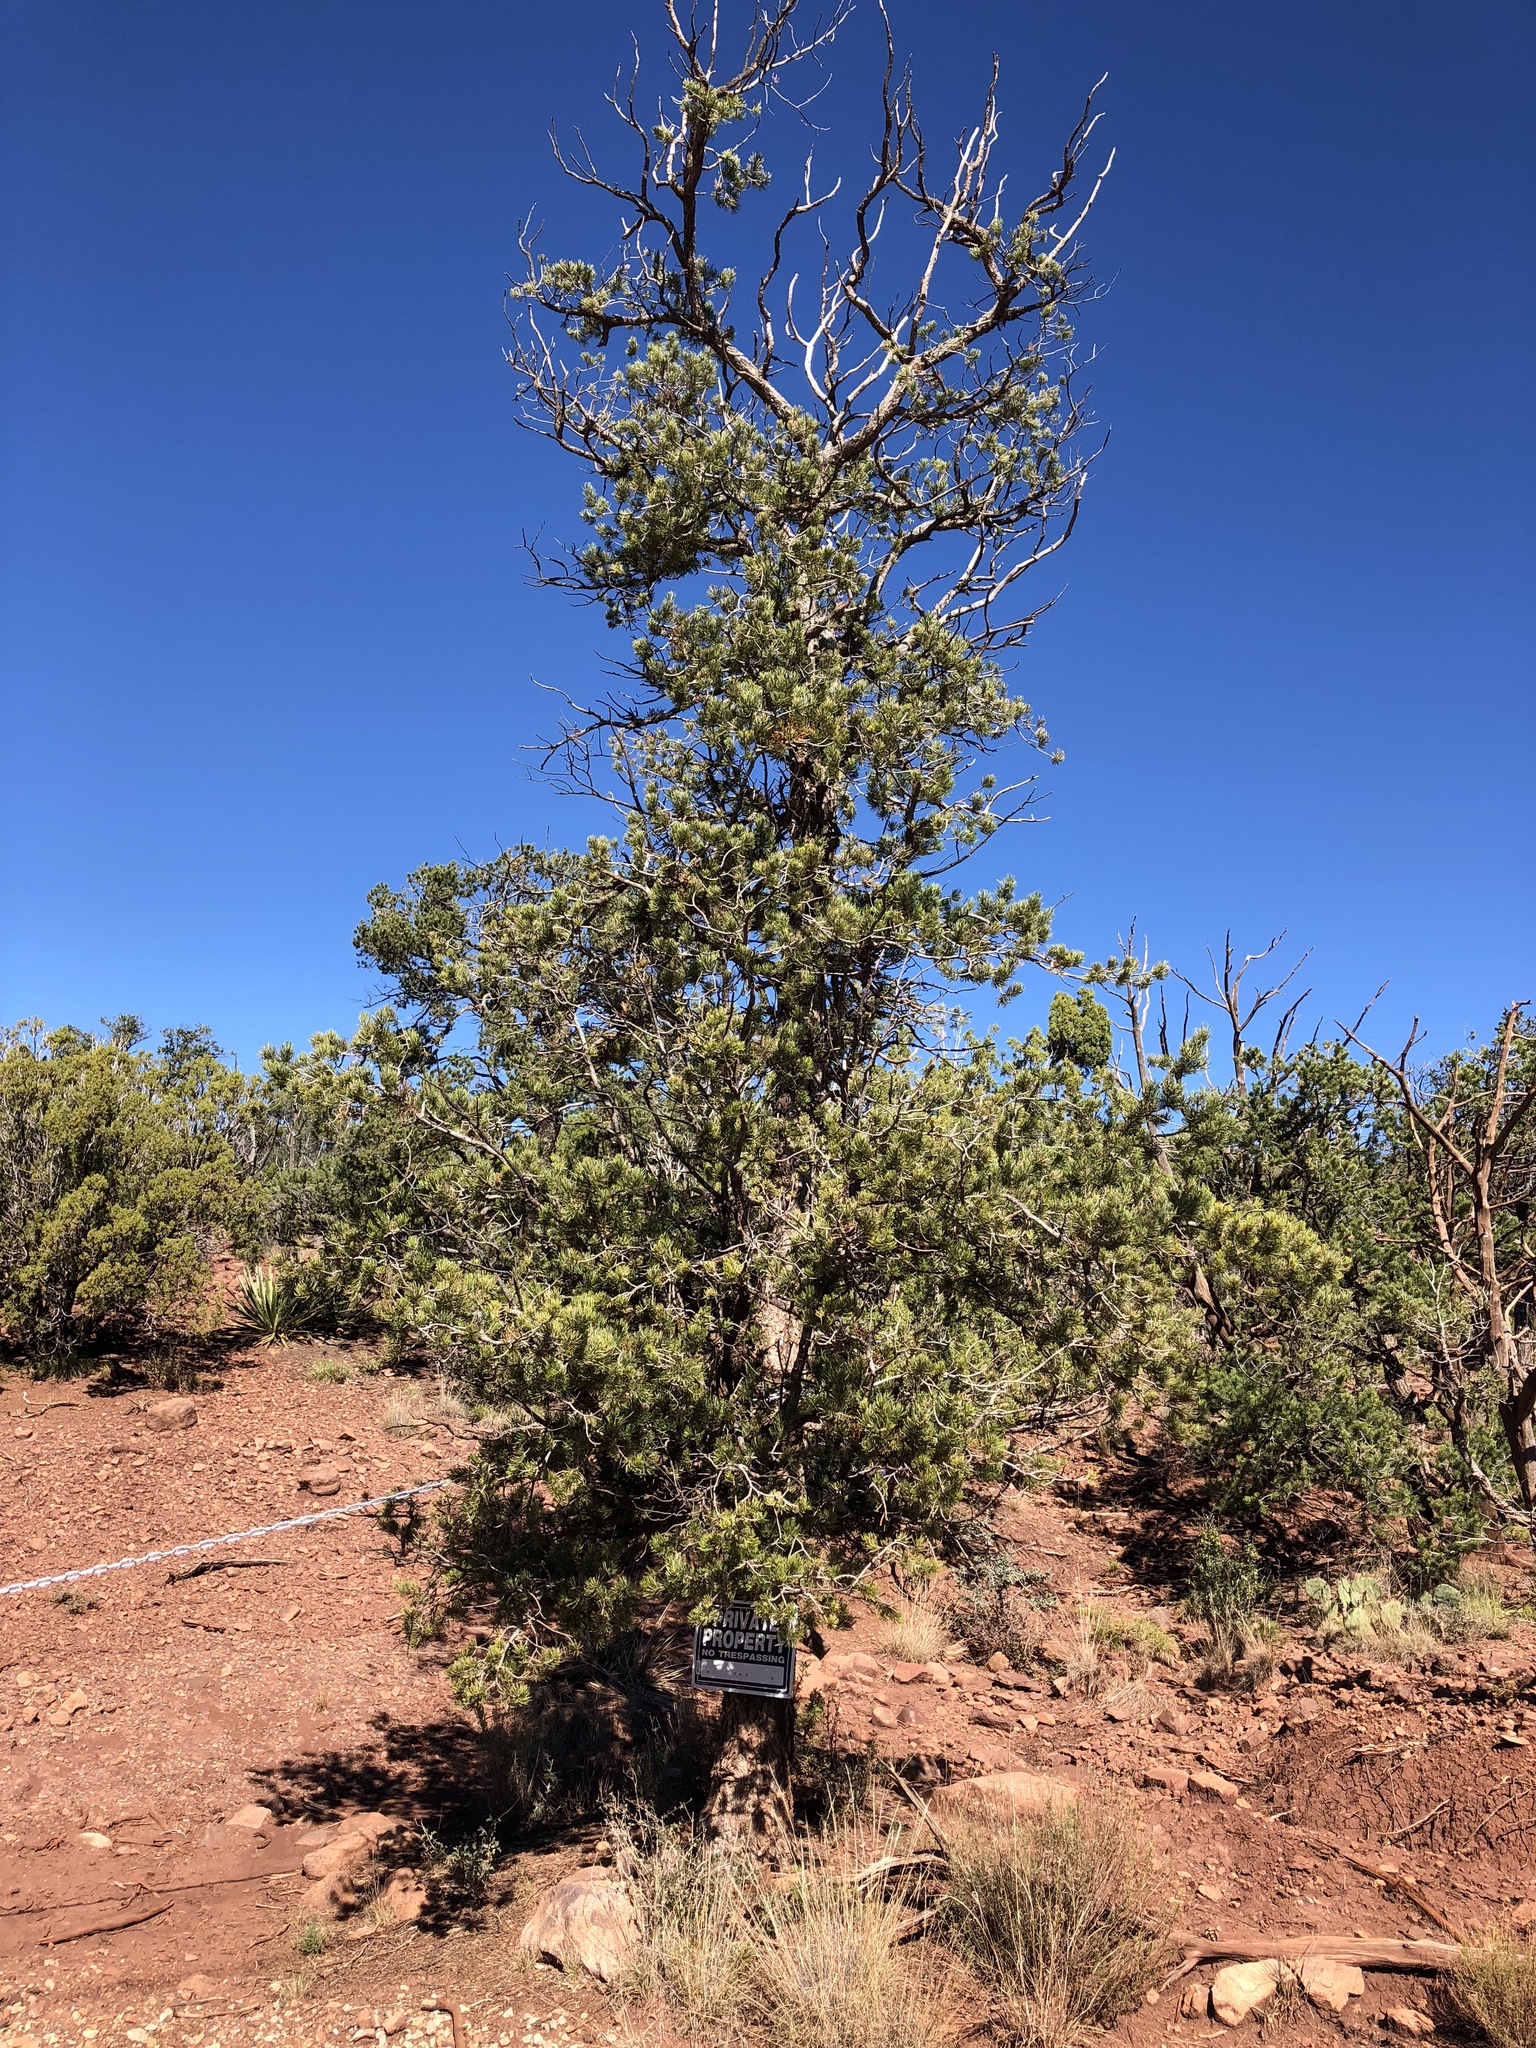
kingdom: Plantae
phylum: Tracheophyta
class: Pinopsida
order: Pinales
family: Pinaceae
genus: Pinus
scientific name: Pinus edulis
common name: Colorado pinyon
